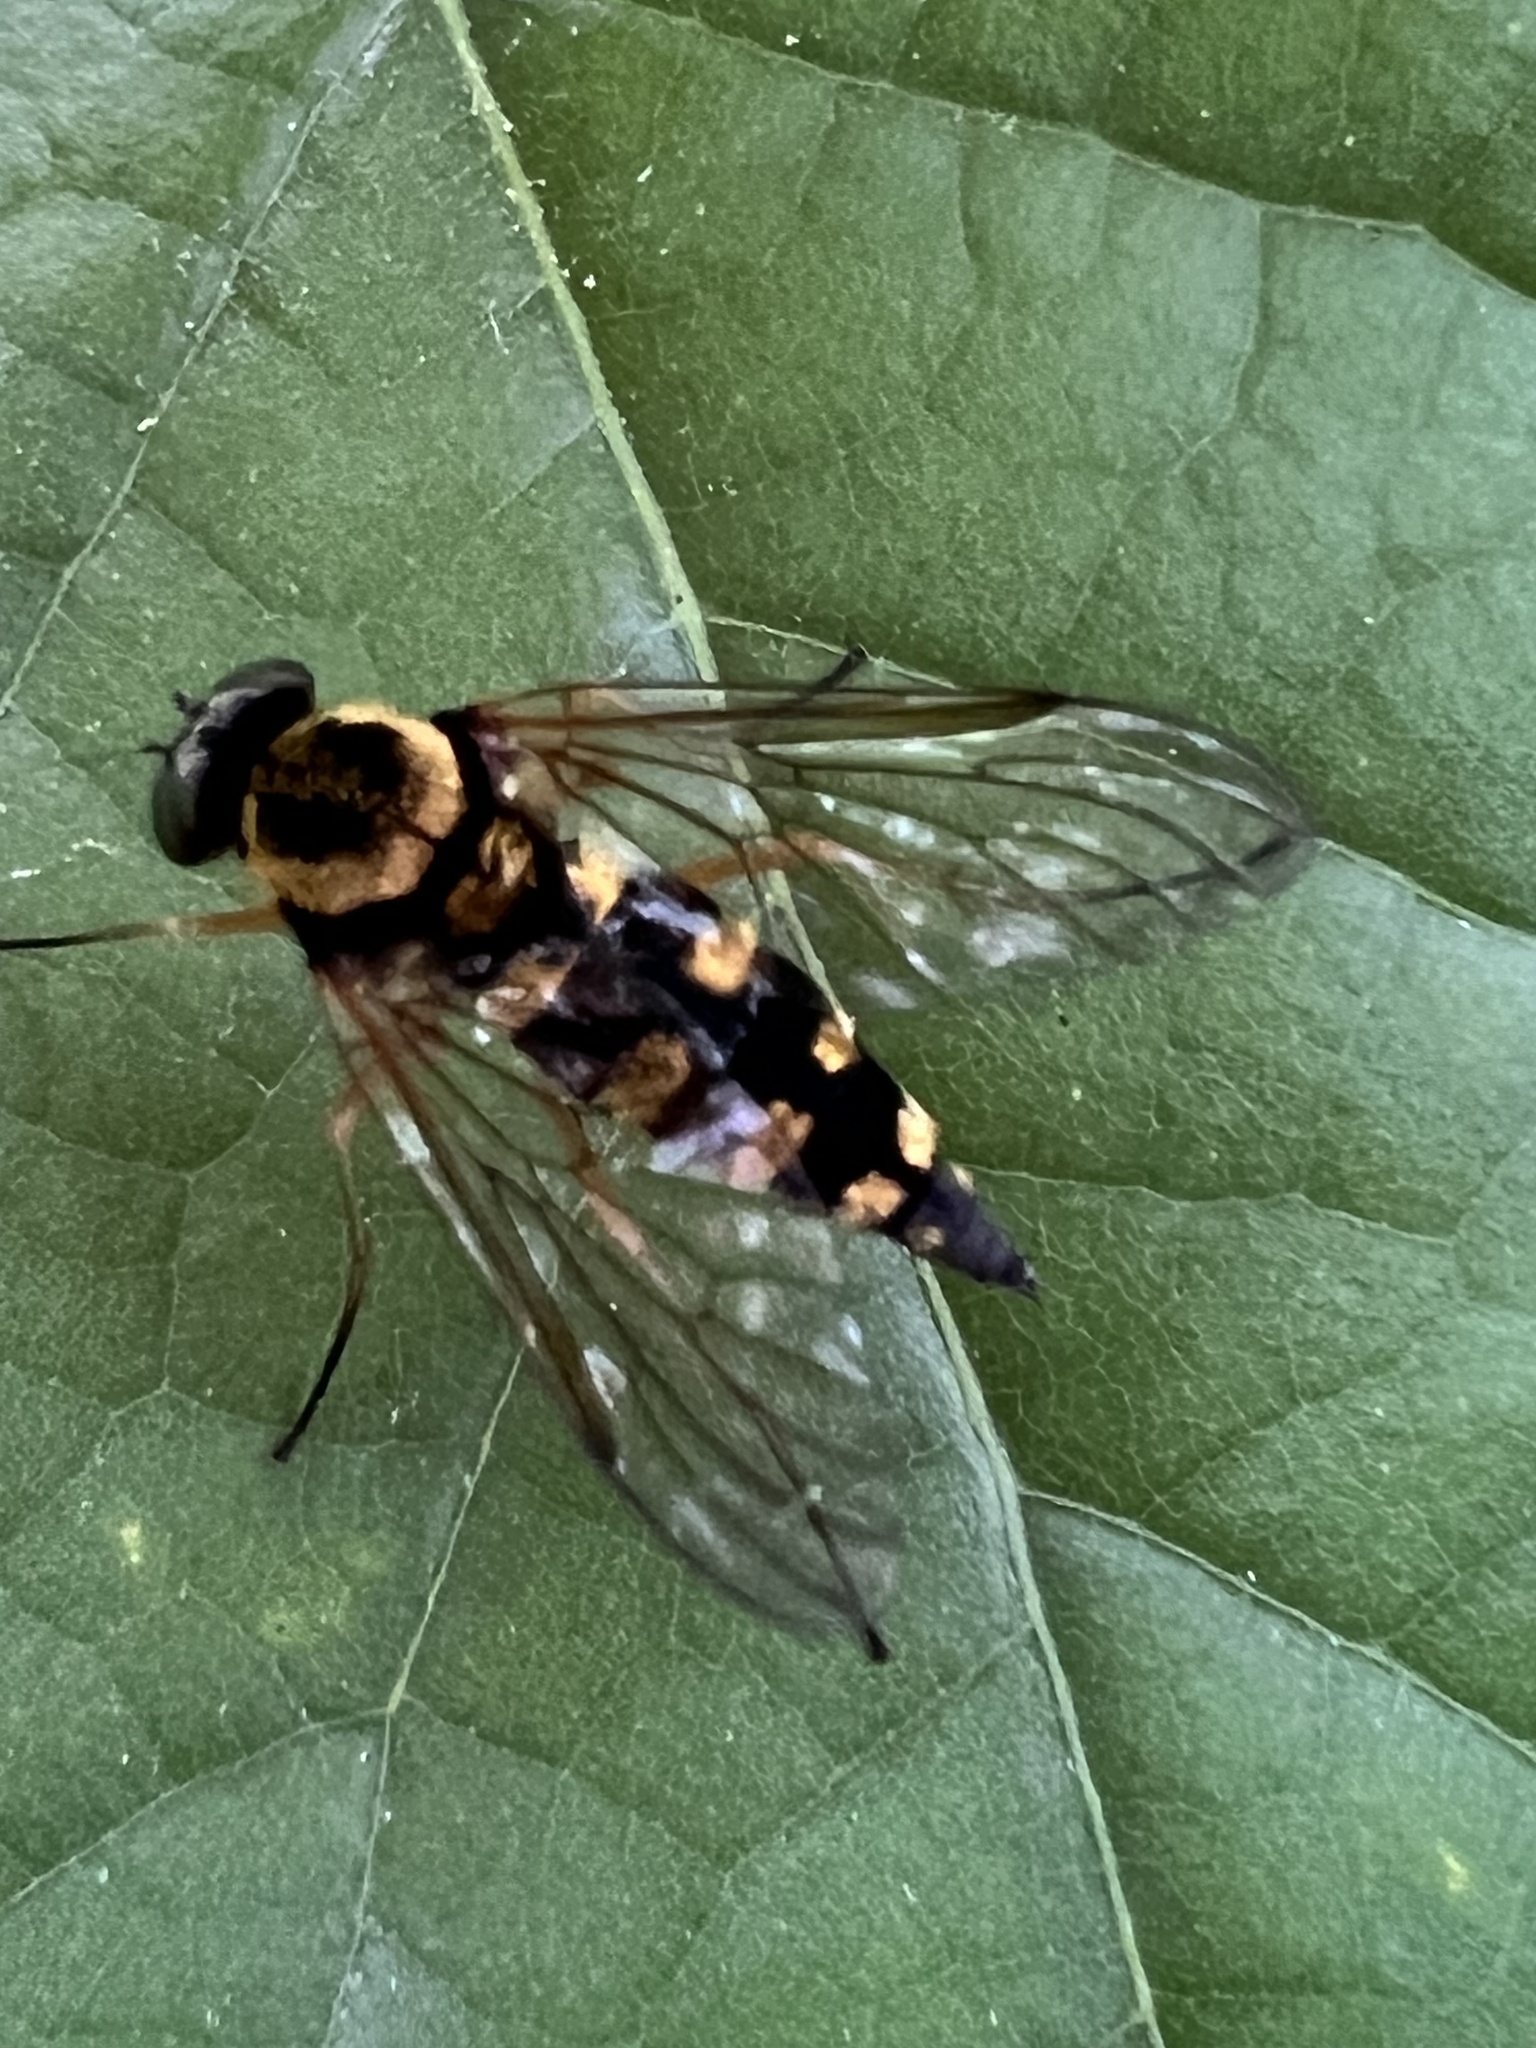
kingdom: Animalia
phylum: Arthropoda
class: Insecta
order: Diptera
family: Rhagionidae
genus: Chrysopilus
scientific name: Chrysopilus ornatus
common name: Ornate snipe fly
